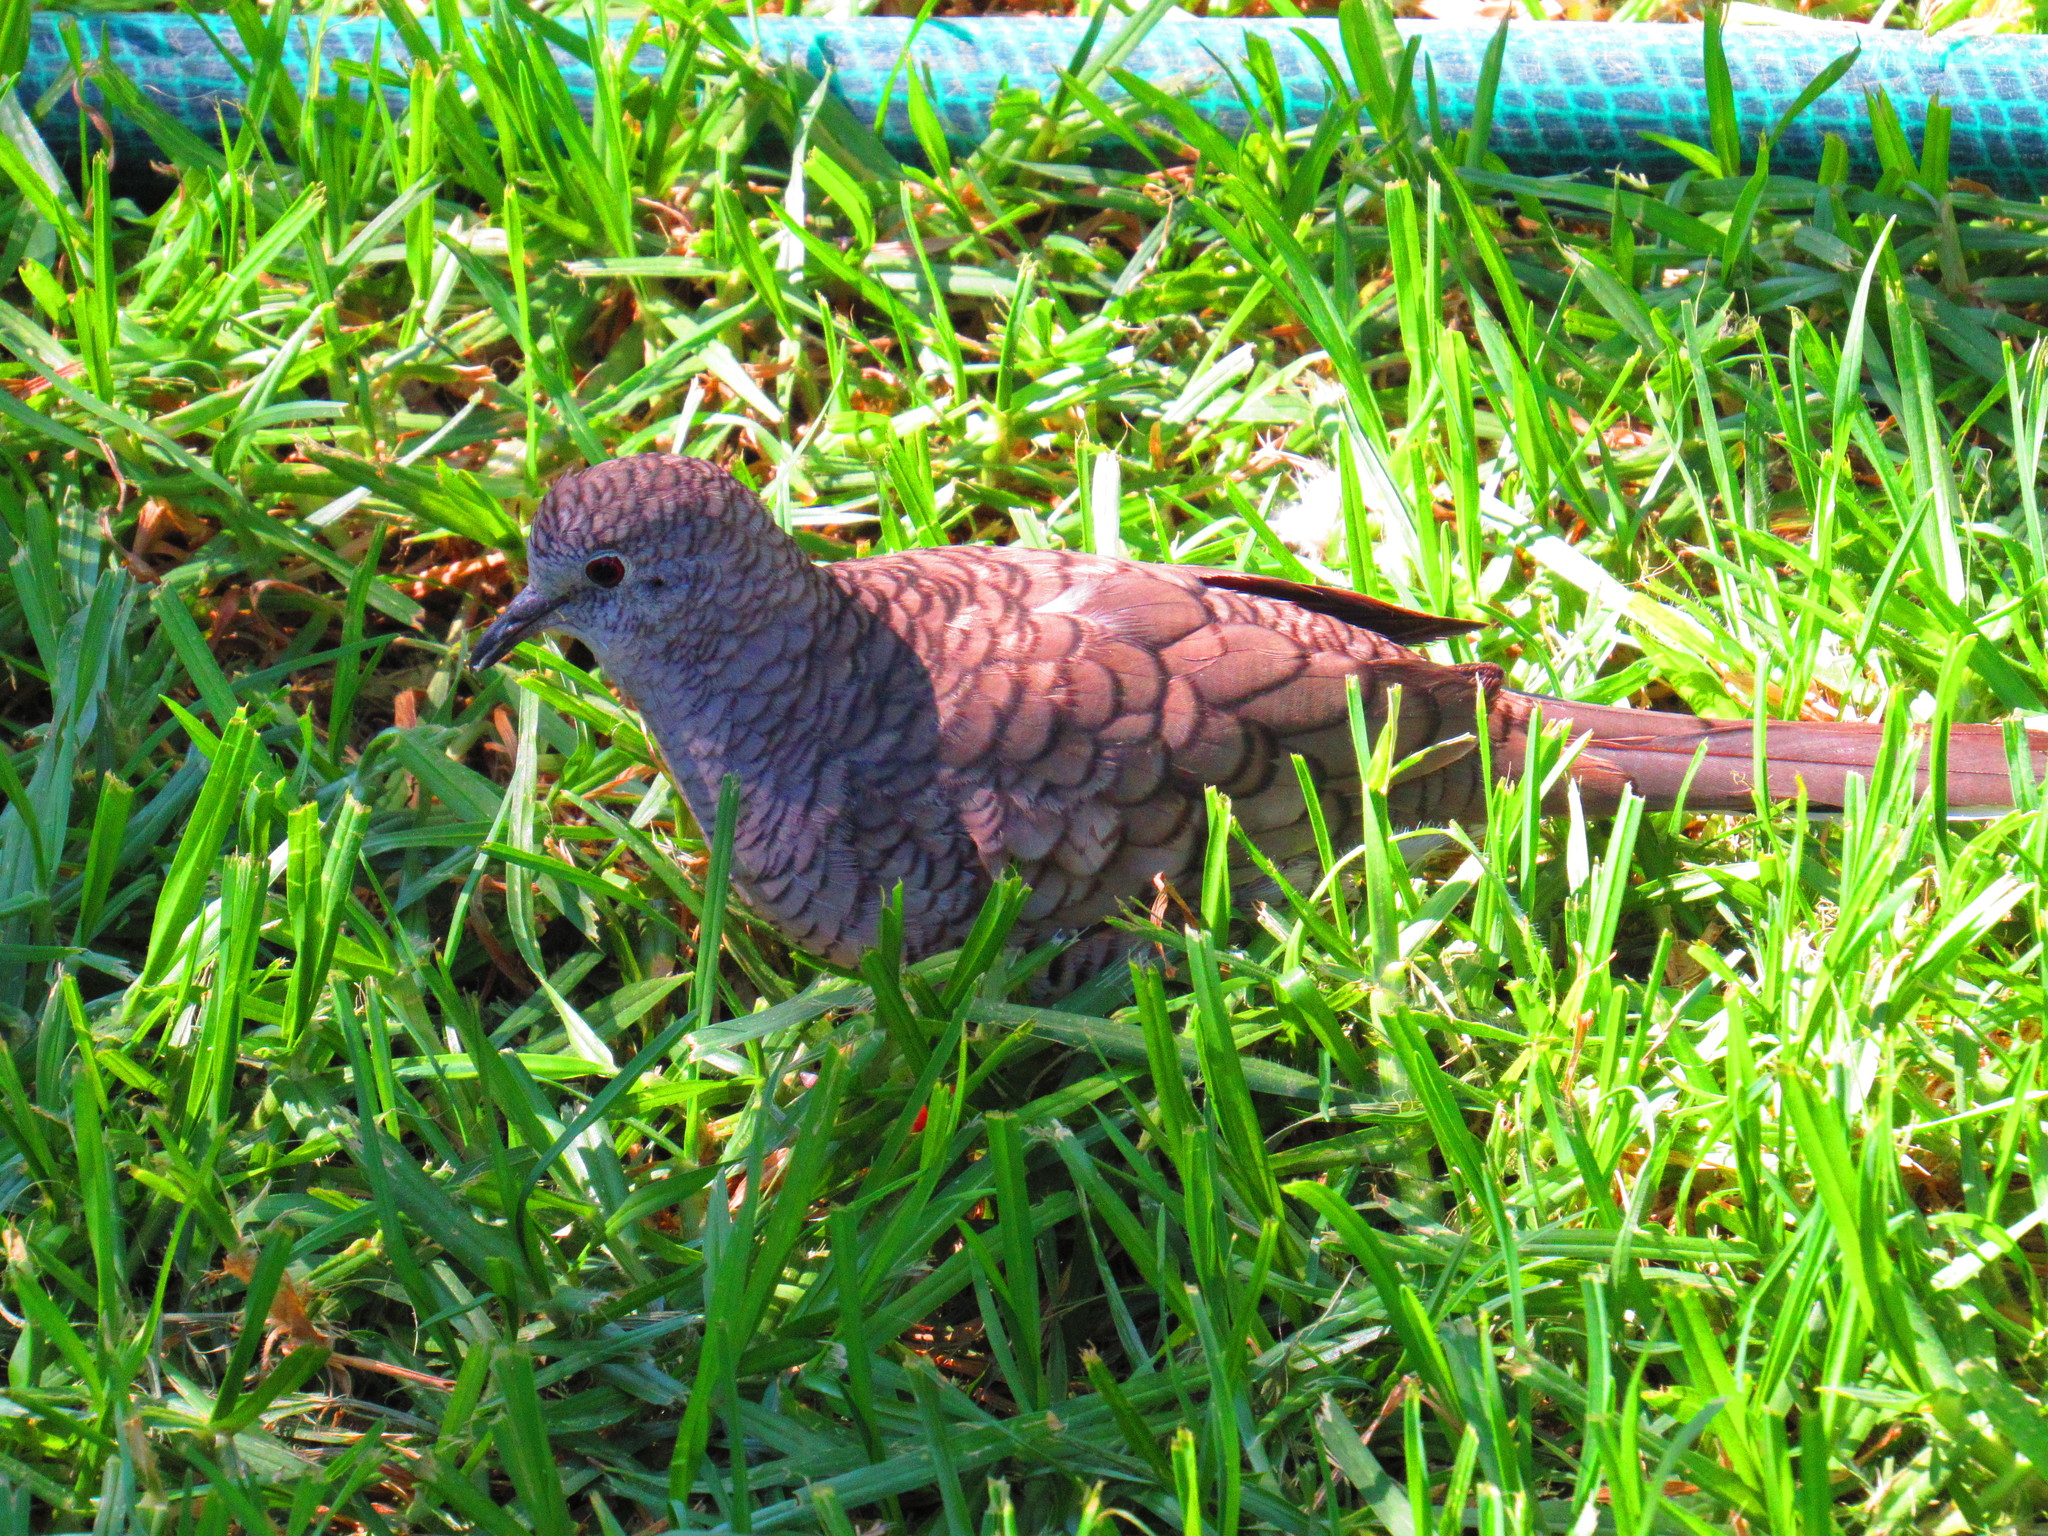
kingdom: Animalia
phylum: Chordata
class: Aves
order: Columbiformes
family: Columbidae
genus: Columbina
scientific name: Columbina inca
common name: Inca dove
